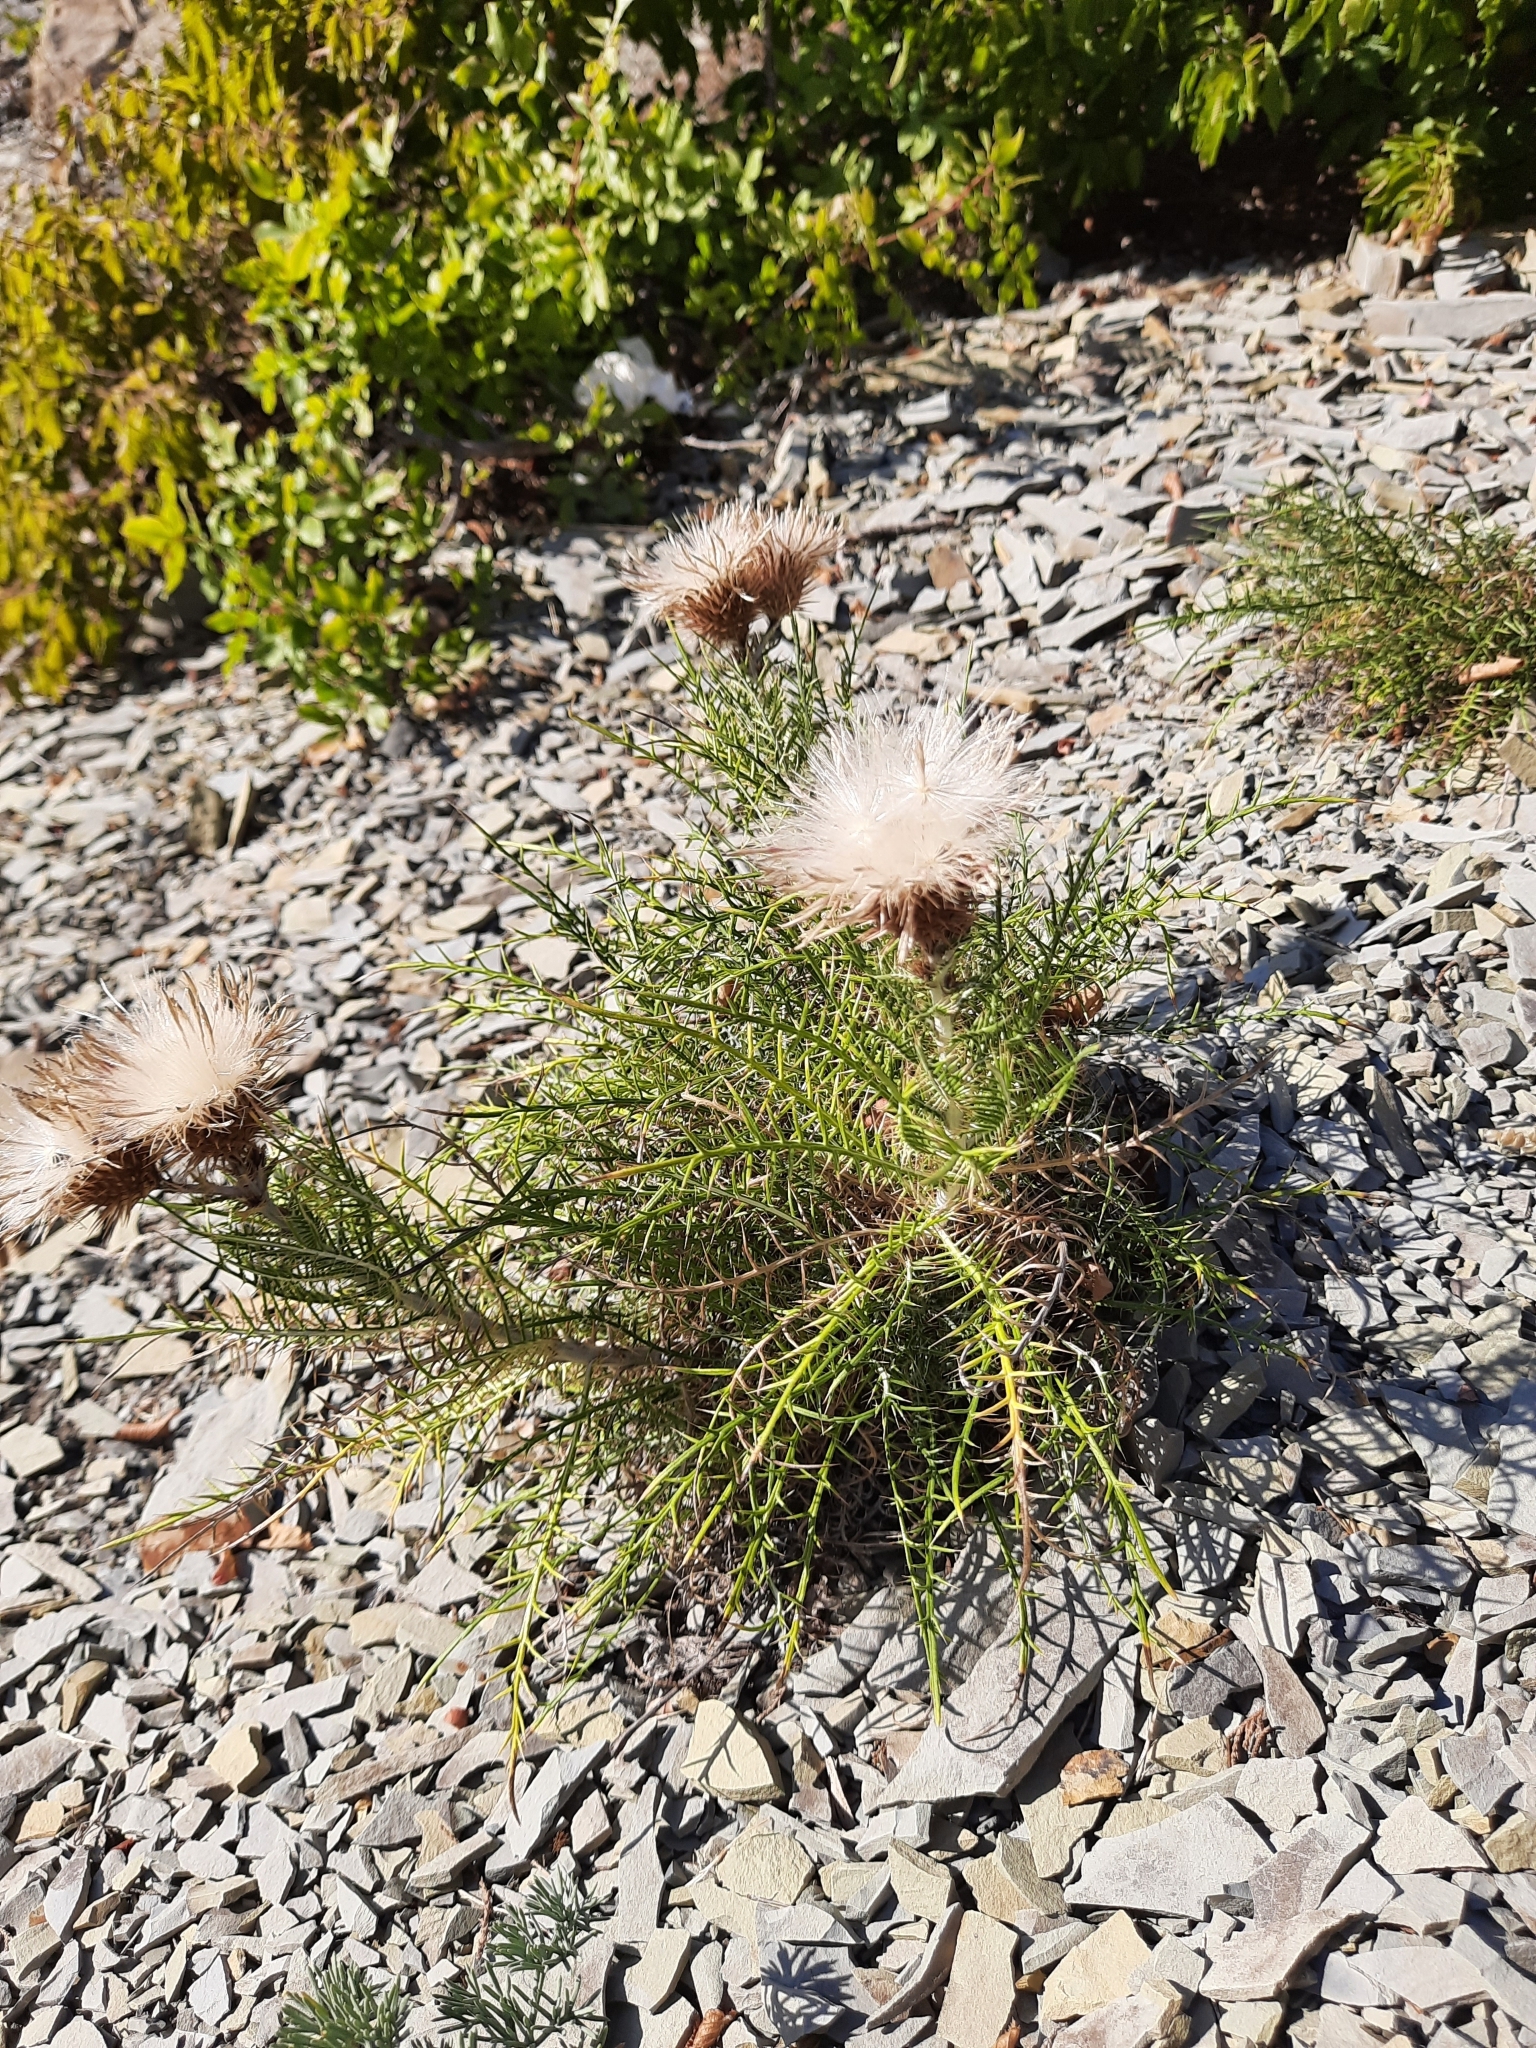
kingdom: Plantae
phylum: Tracheophyta
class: Magnoliopsida
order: Asterales
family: Asteraceae
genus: Ptilostemon
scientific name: Ptilostemon echinocephalus
